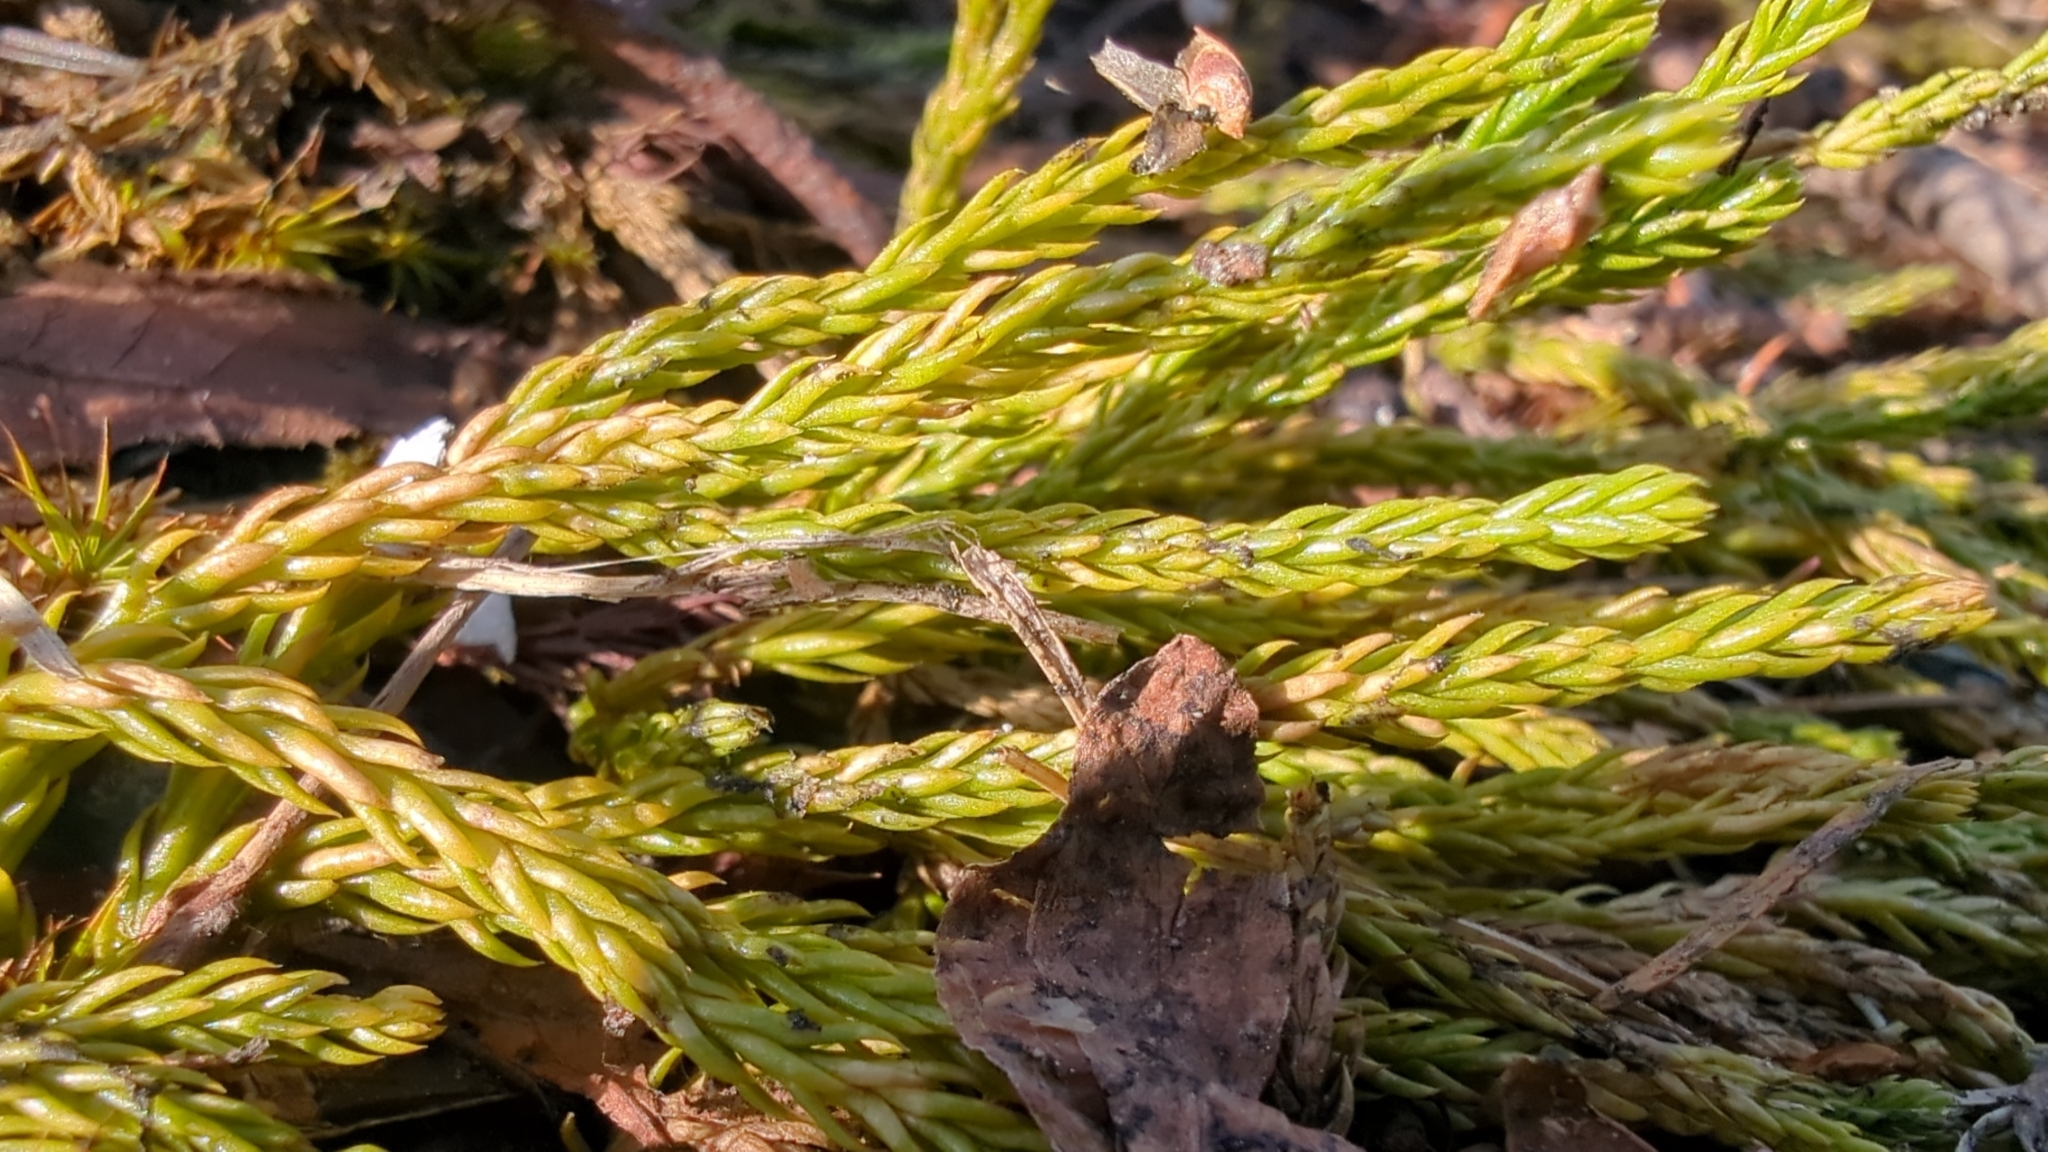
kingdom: Plantae
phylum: Tracheophyta
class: Lycopodiopsida
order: Lycopodiales
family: Lycopodiaceae
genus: Diphasiastrum
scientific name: Diphasiastrum sitchense
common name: Alaska clubmoss
